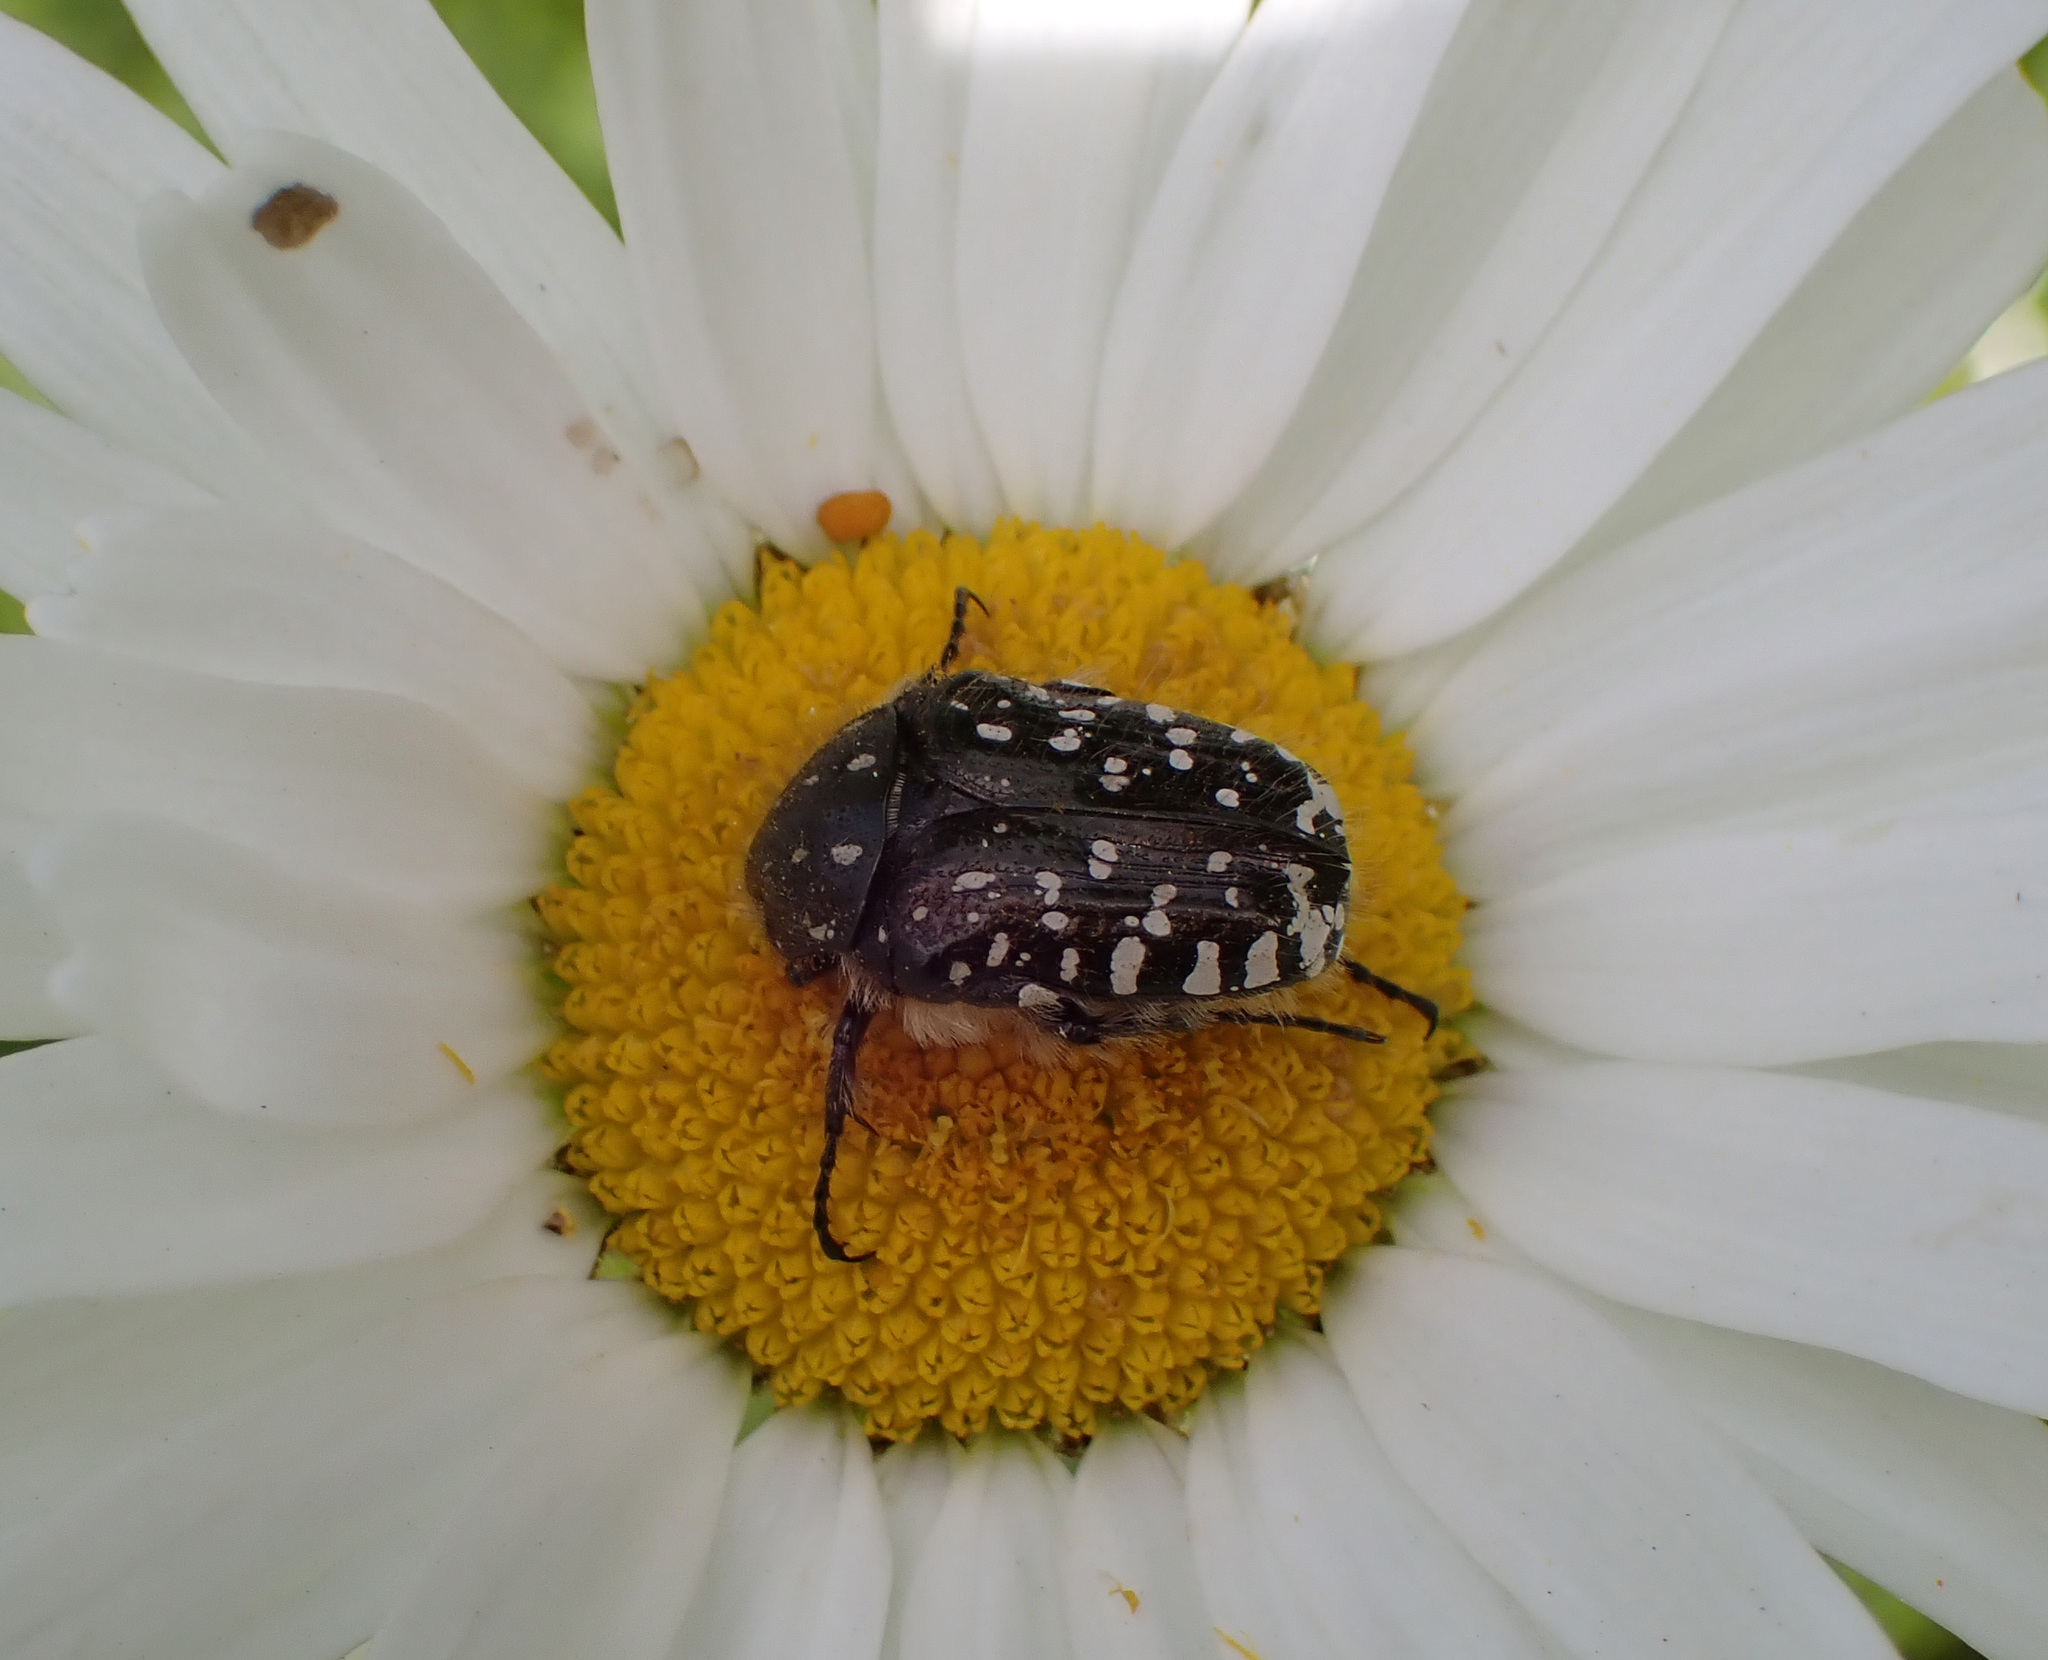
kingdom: Animalia
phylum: Arthropoda
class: Insecta
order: Coleoptera
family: Scarabaeidae
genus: Oxythyrea
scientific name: Oxythyrea funesta
